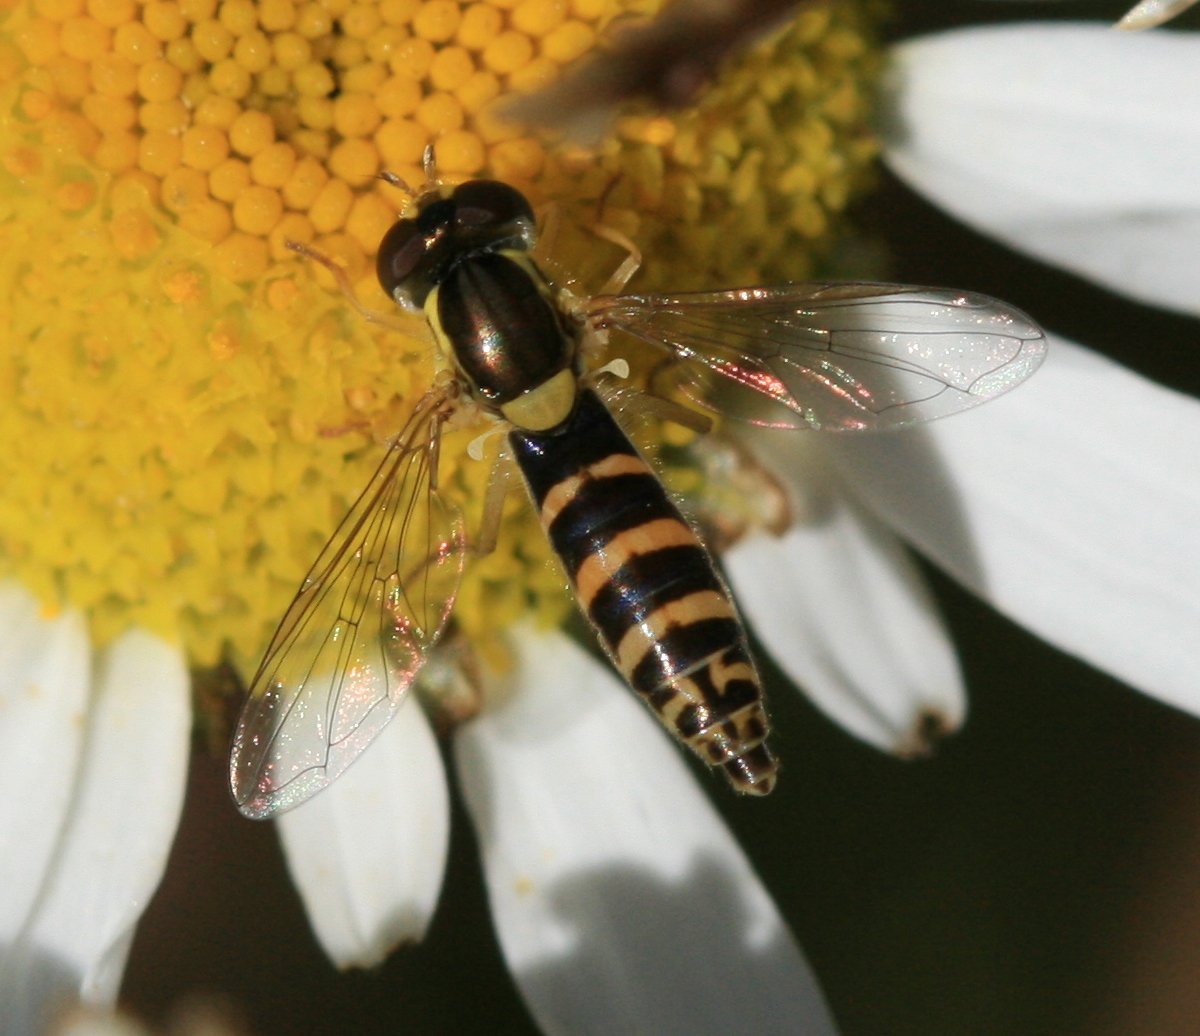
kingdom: Animalia
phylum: Arthropoda
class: Insecta
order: Diptera
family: Syrphidae
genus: Sphaerophoria
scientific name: Sphaerophoria
